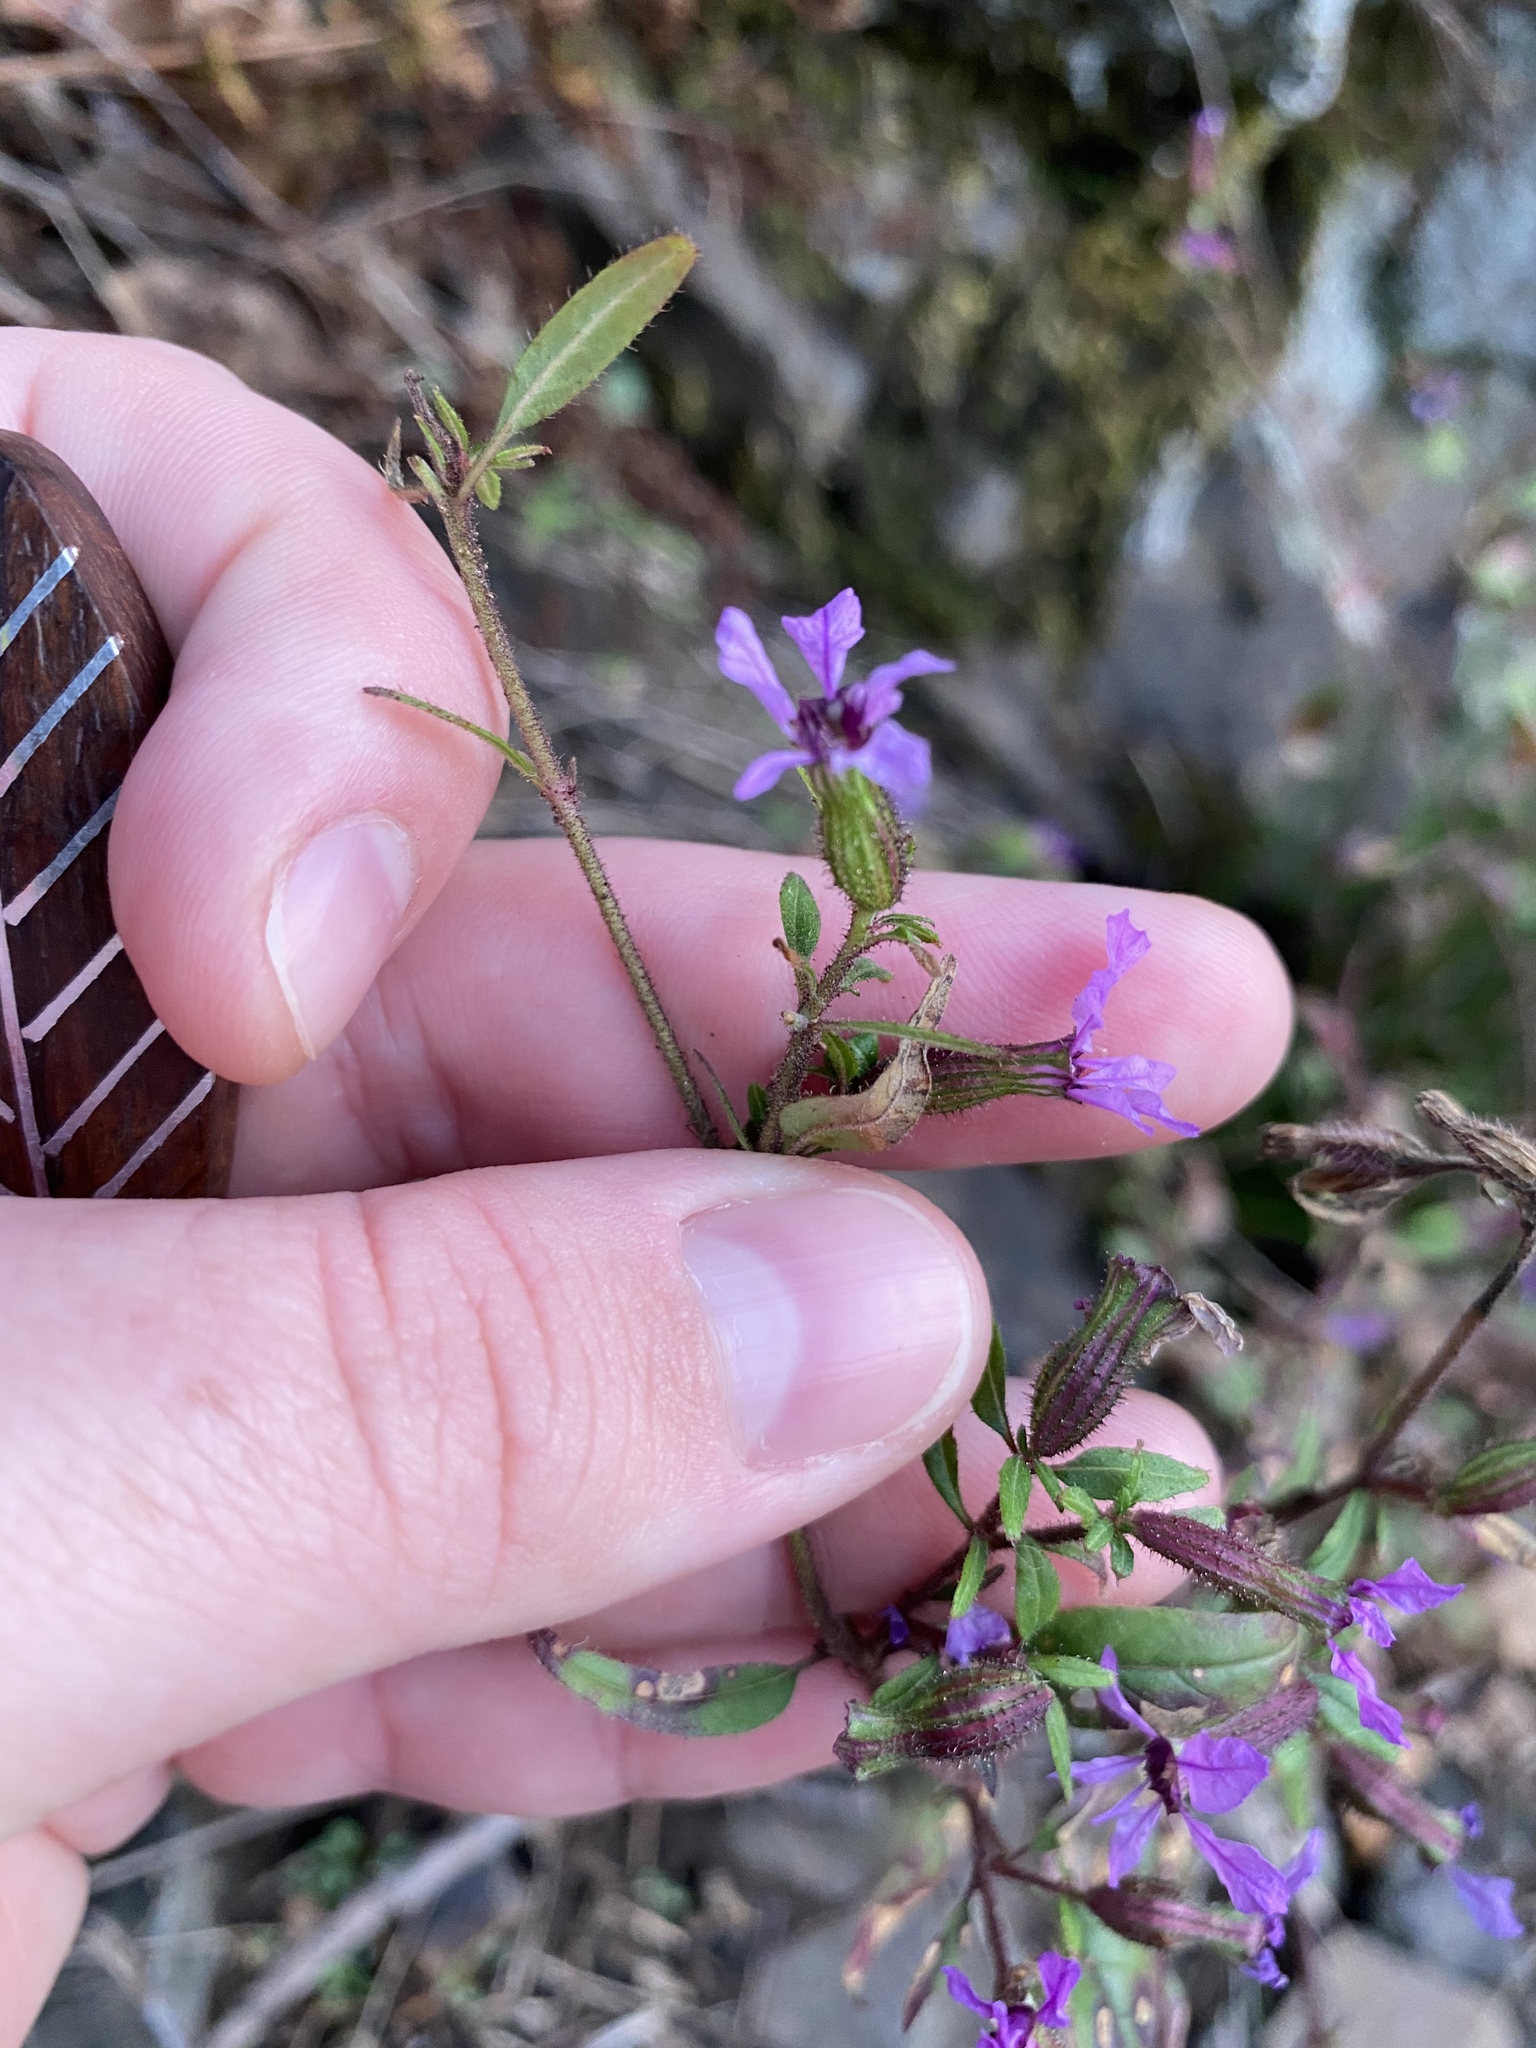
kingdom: Plantae
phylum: Tracheophyta
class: Magnoliopsida
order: Myrtales
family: Lythraceae
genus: Cuphea
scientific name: Cuphea viscosissima
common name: Clammy cuphea
